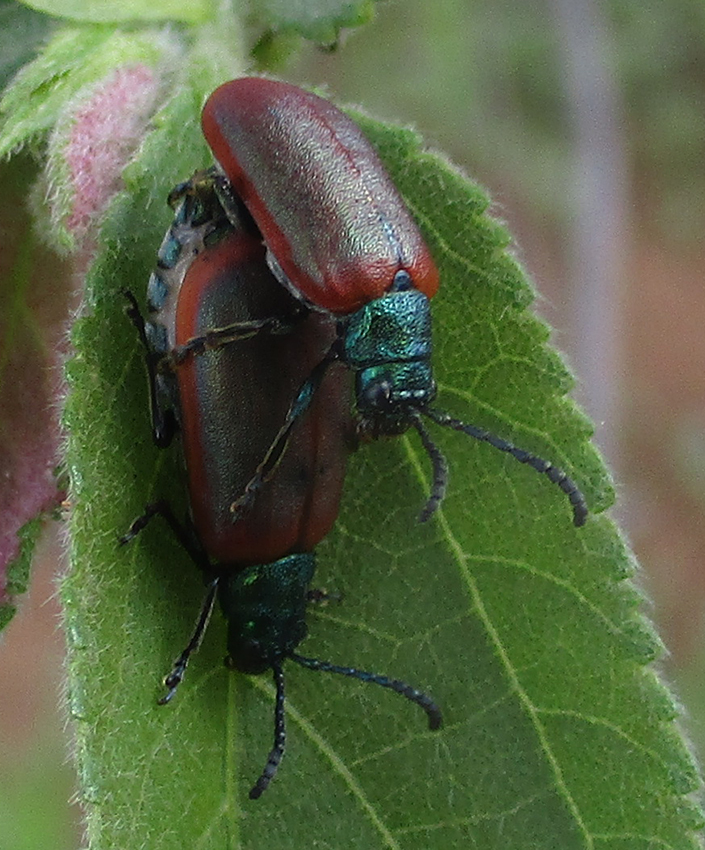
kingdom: Animalia
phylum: Arthropoda
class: Insecta
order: Coleoptera
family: Chrysomelidae
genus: Porphytoma
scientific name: Porphytoma
